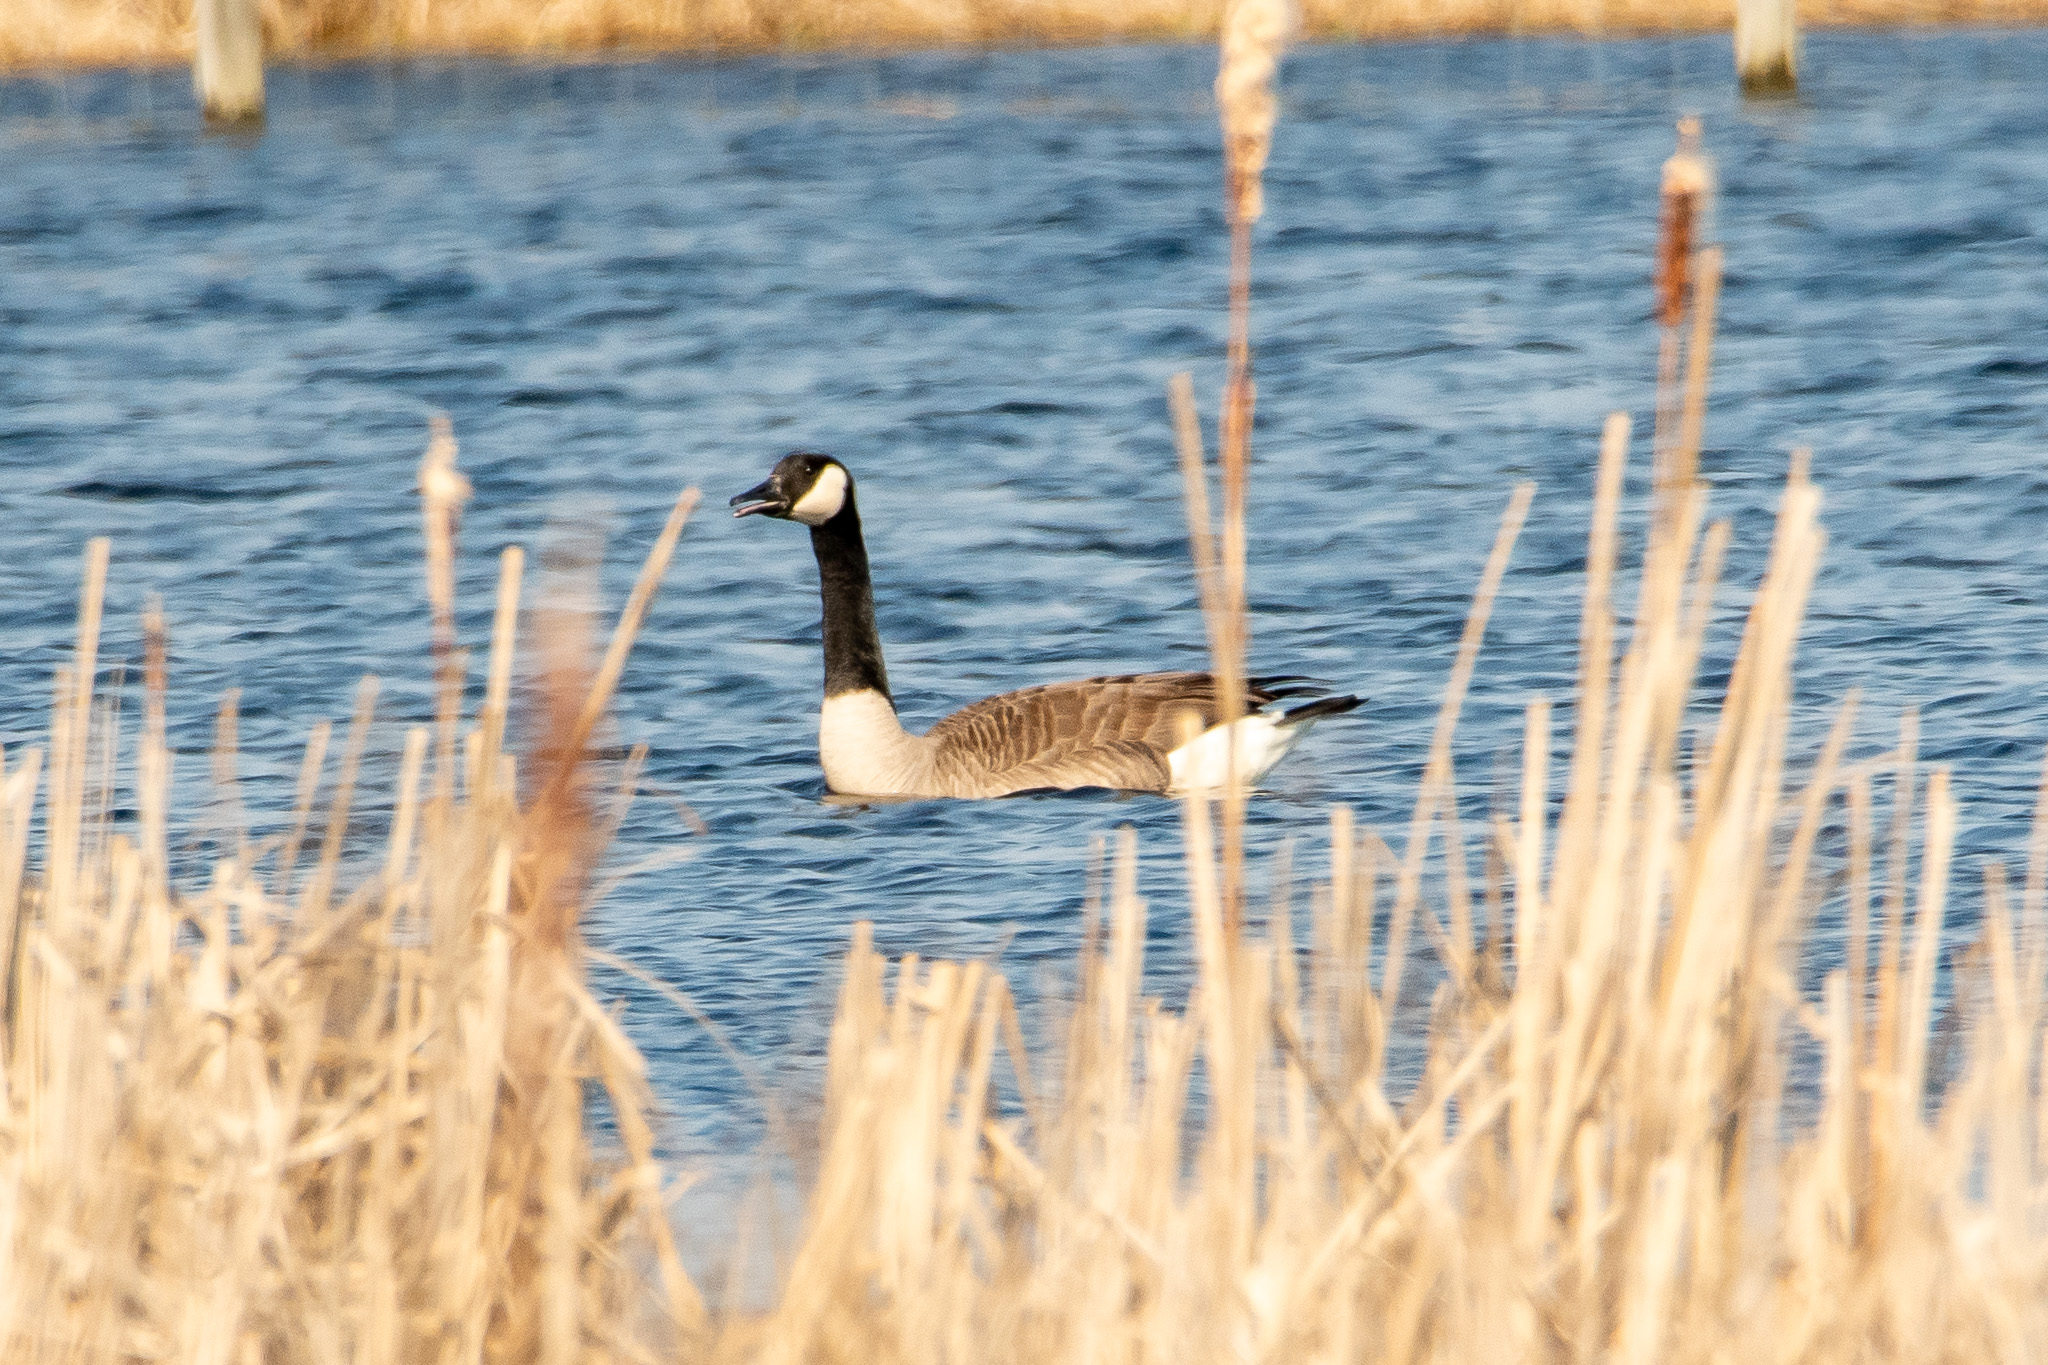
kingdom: Animalia
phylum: Chordata
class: Aves
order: Anseriformes
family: Anatidae
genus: Branta
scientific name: Branta canadensis
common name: Canada goose
